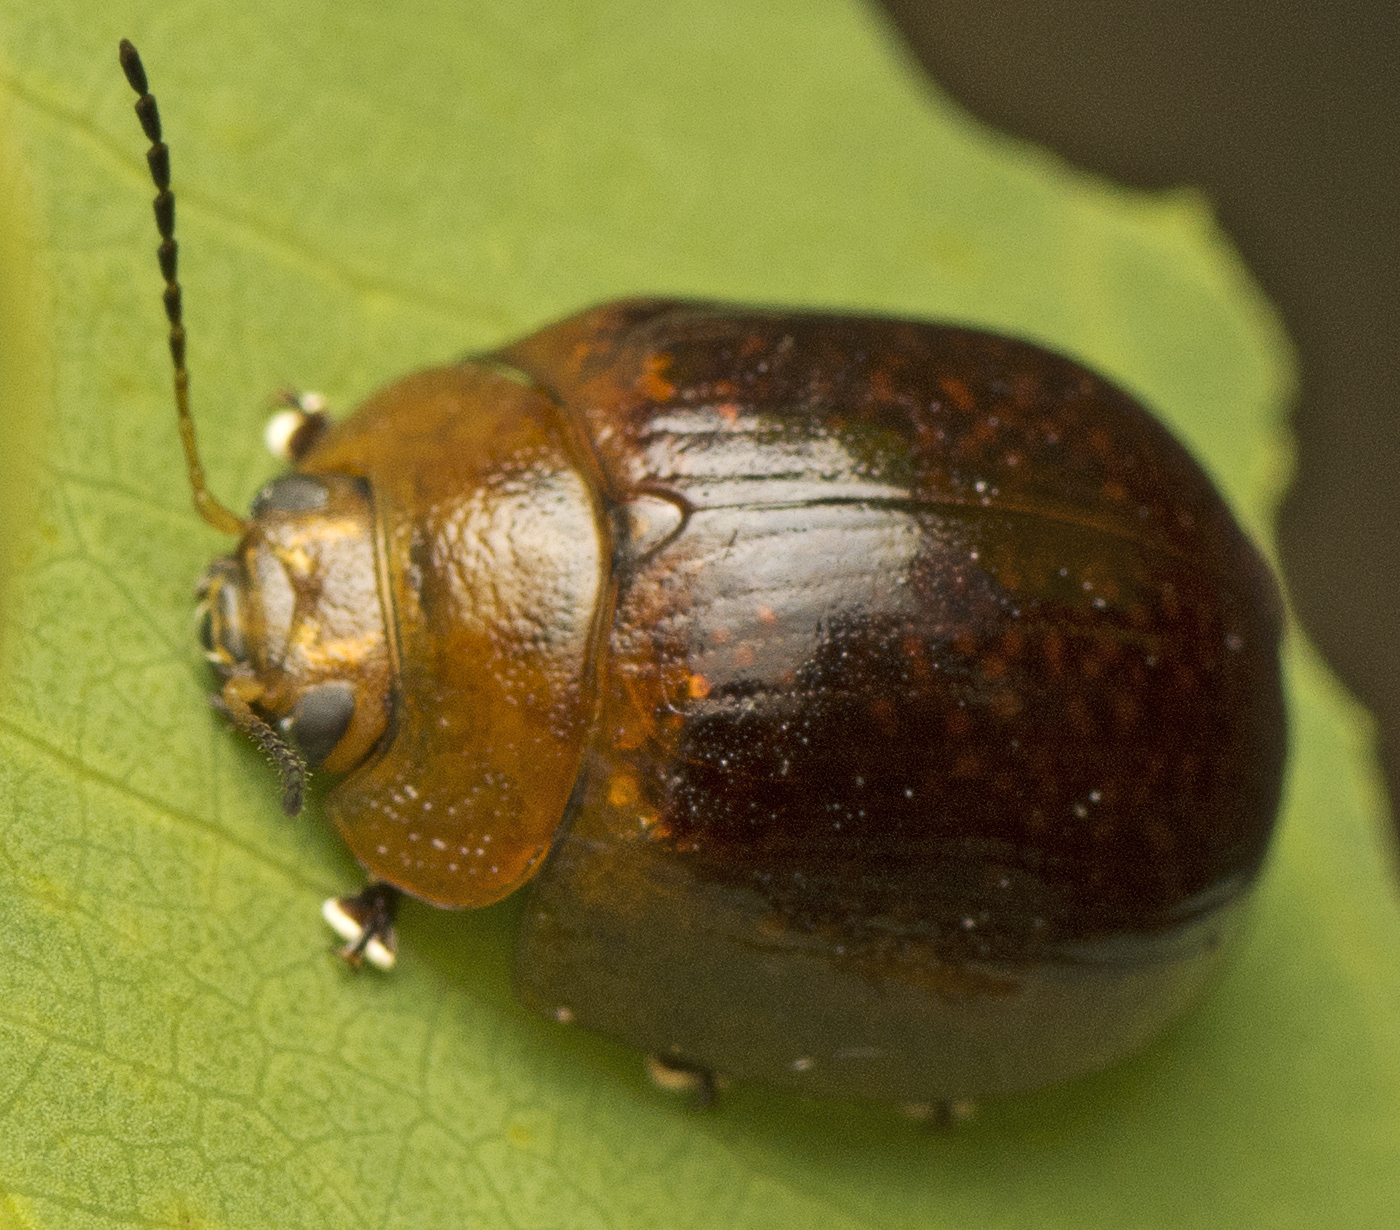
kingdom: Animalia
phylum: Arthropoda
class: Insecta
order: Coleoptera
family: Chrysomelidae
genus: Paropsisterna
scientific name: Paropsisterna cloelia
